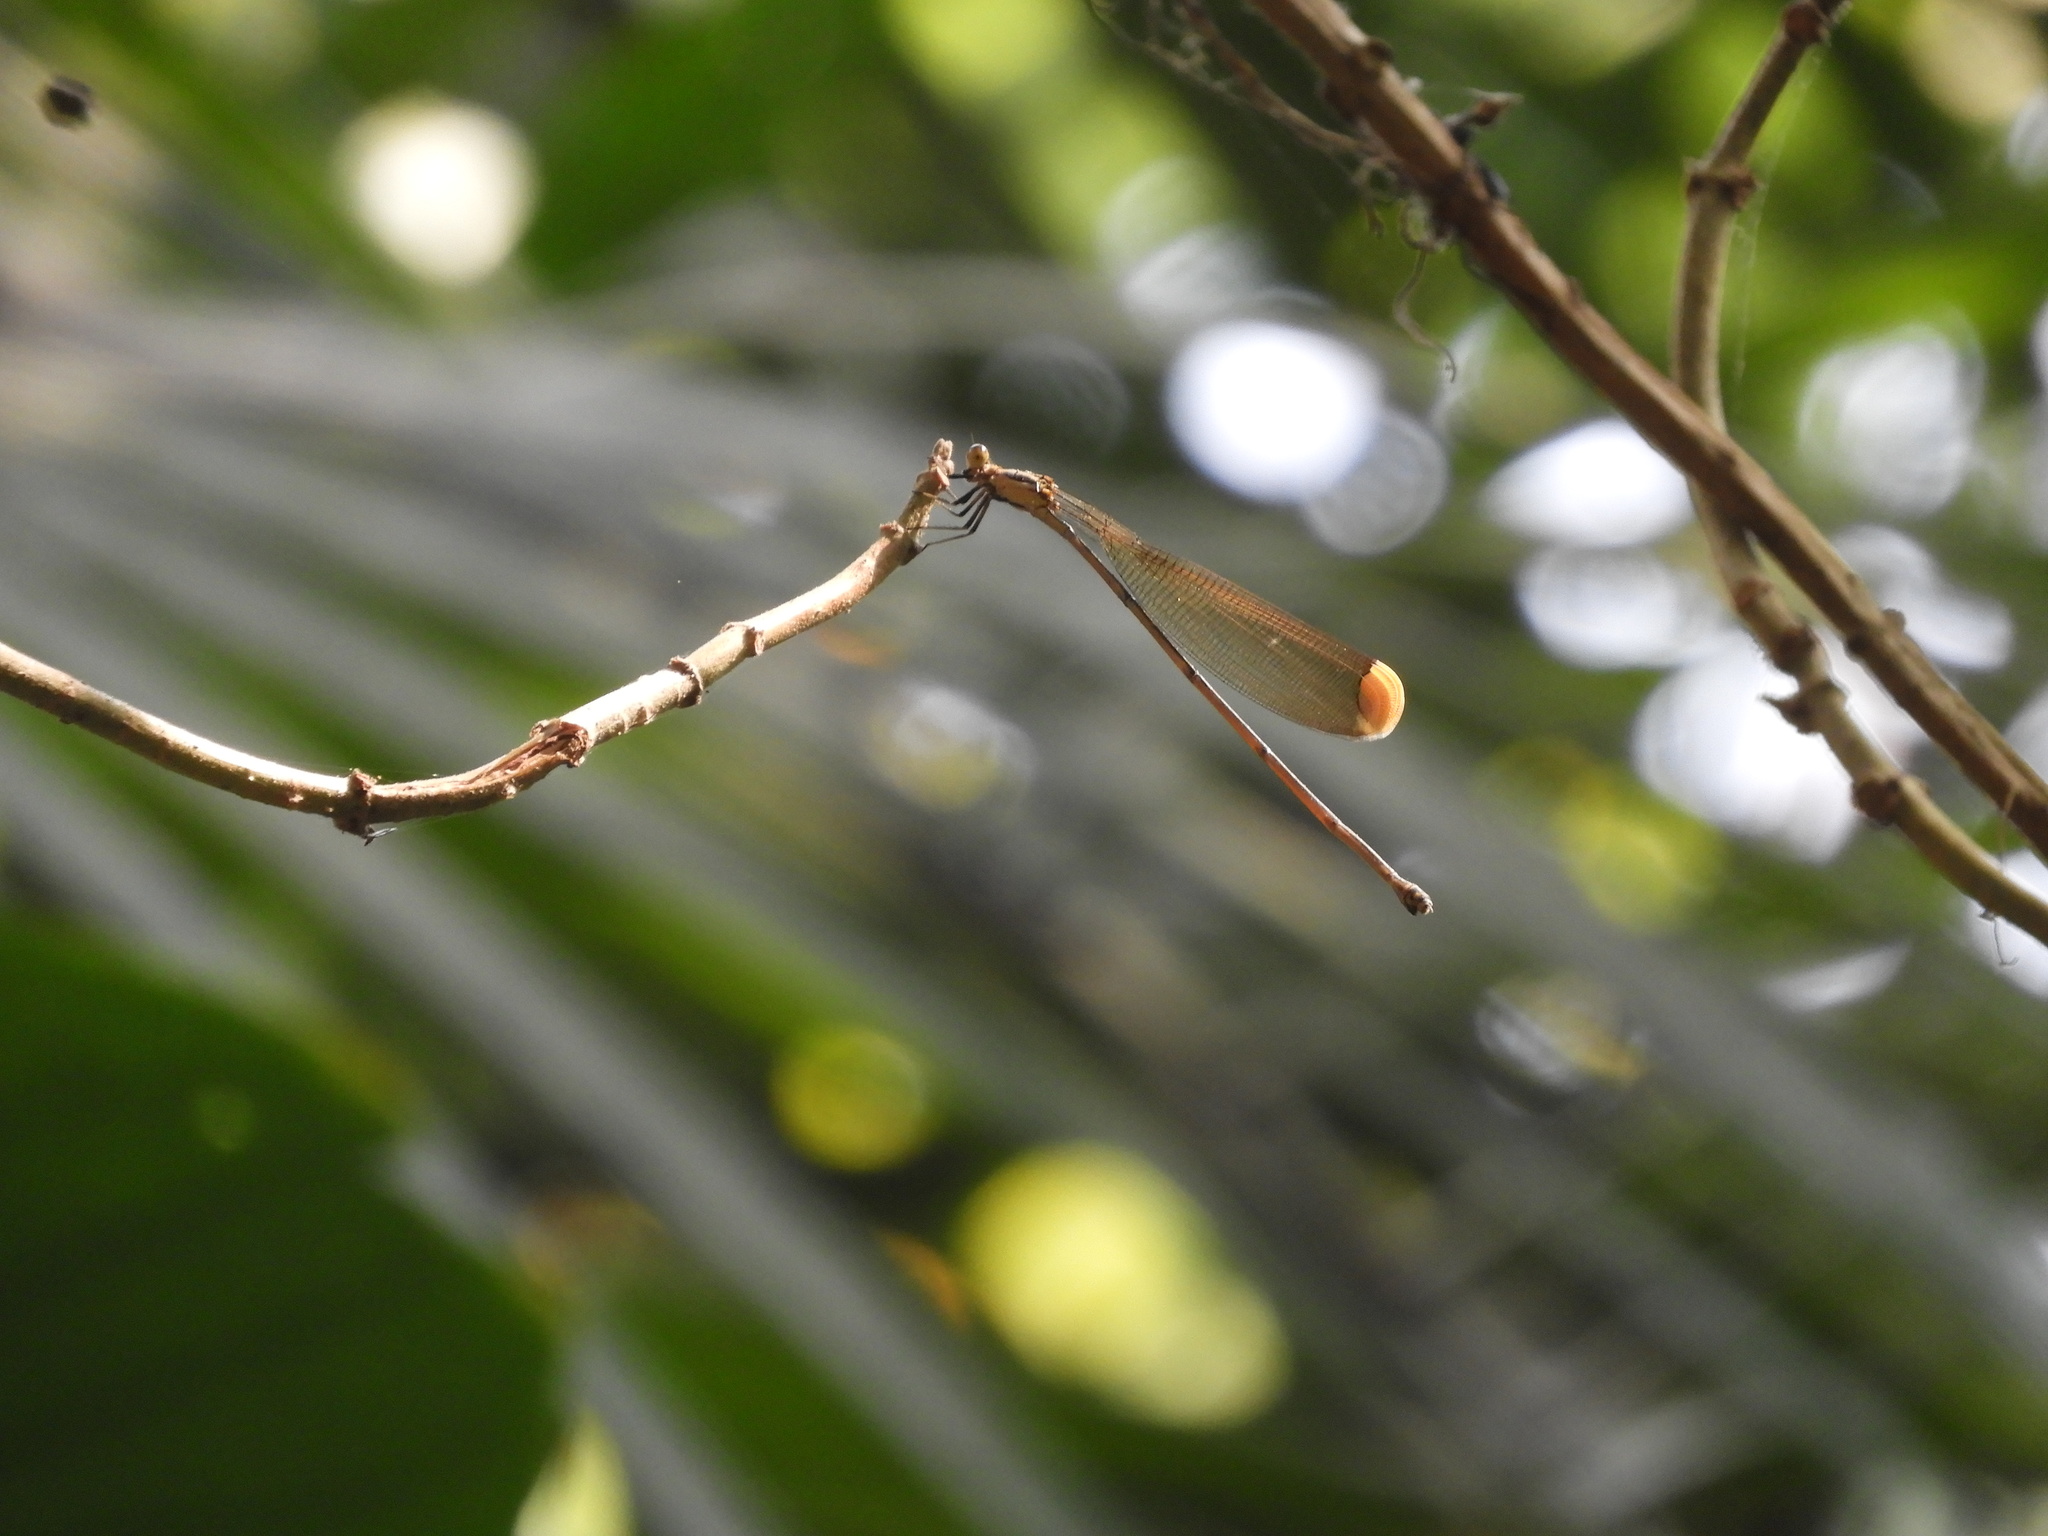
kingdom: Animalia
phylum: Arthropoda
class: Insecta
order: Odonata
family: Coenagrionidae
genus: Mecistogaster
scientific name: Mecistogaster ornata
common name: Ornate helicopter
